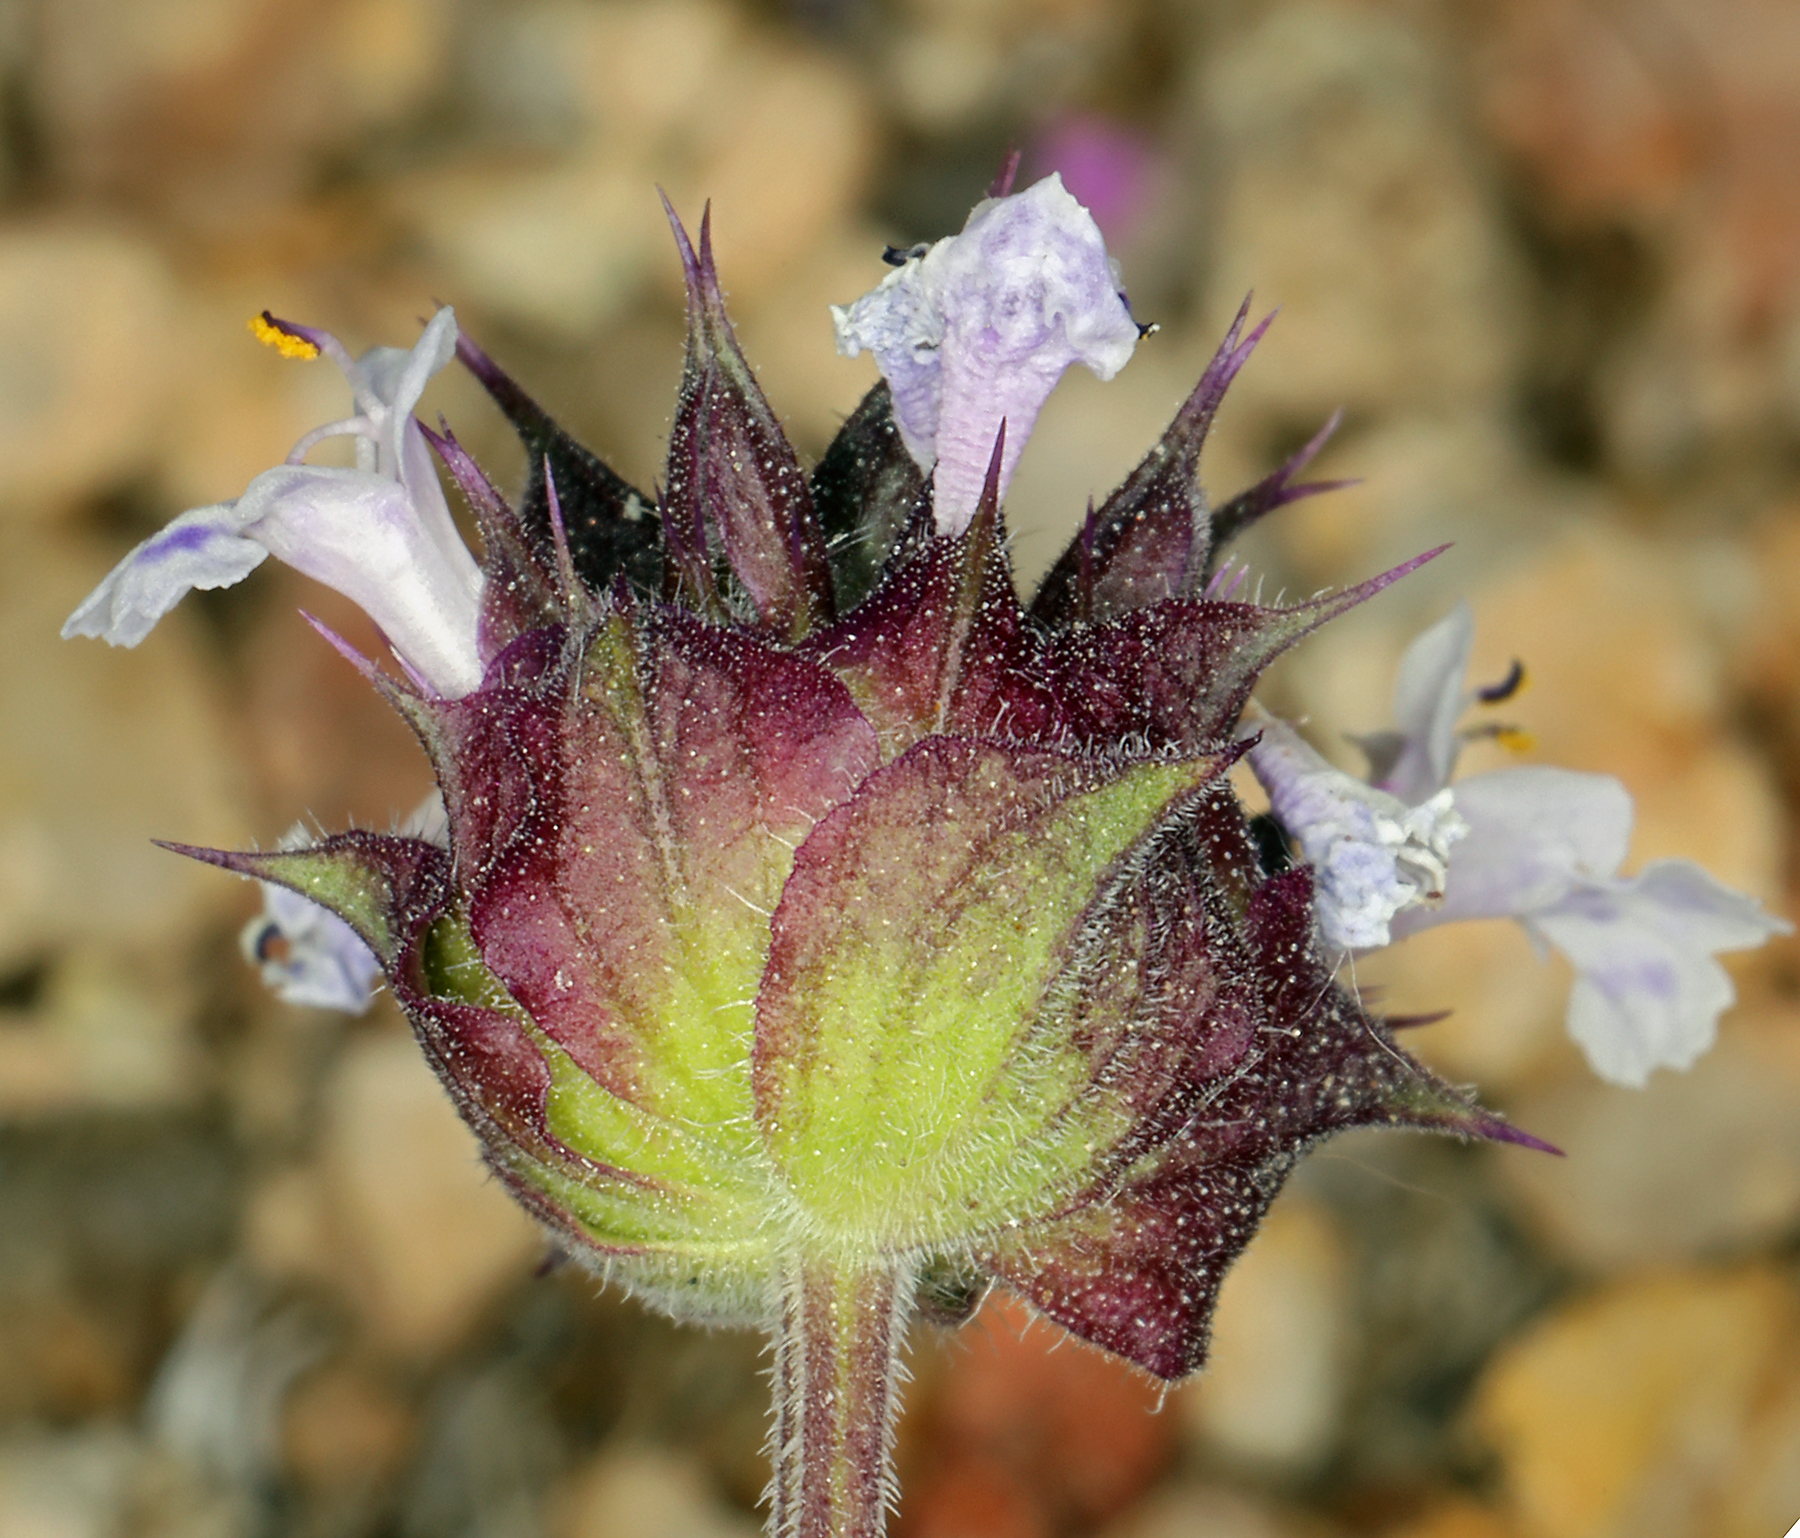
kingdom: Plantae
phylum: Tracheophyta
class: Magnoliopsida
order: Lamiales
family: Lamiaceae
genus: Salvia
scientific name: Salvia columbariae
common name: Chia
